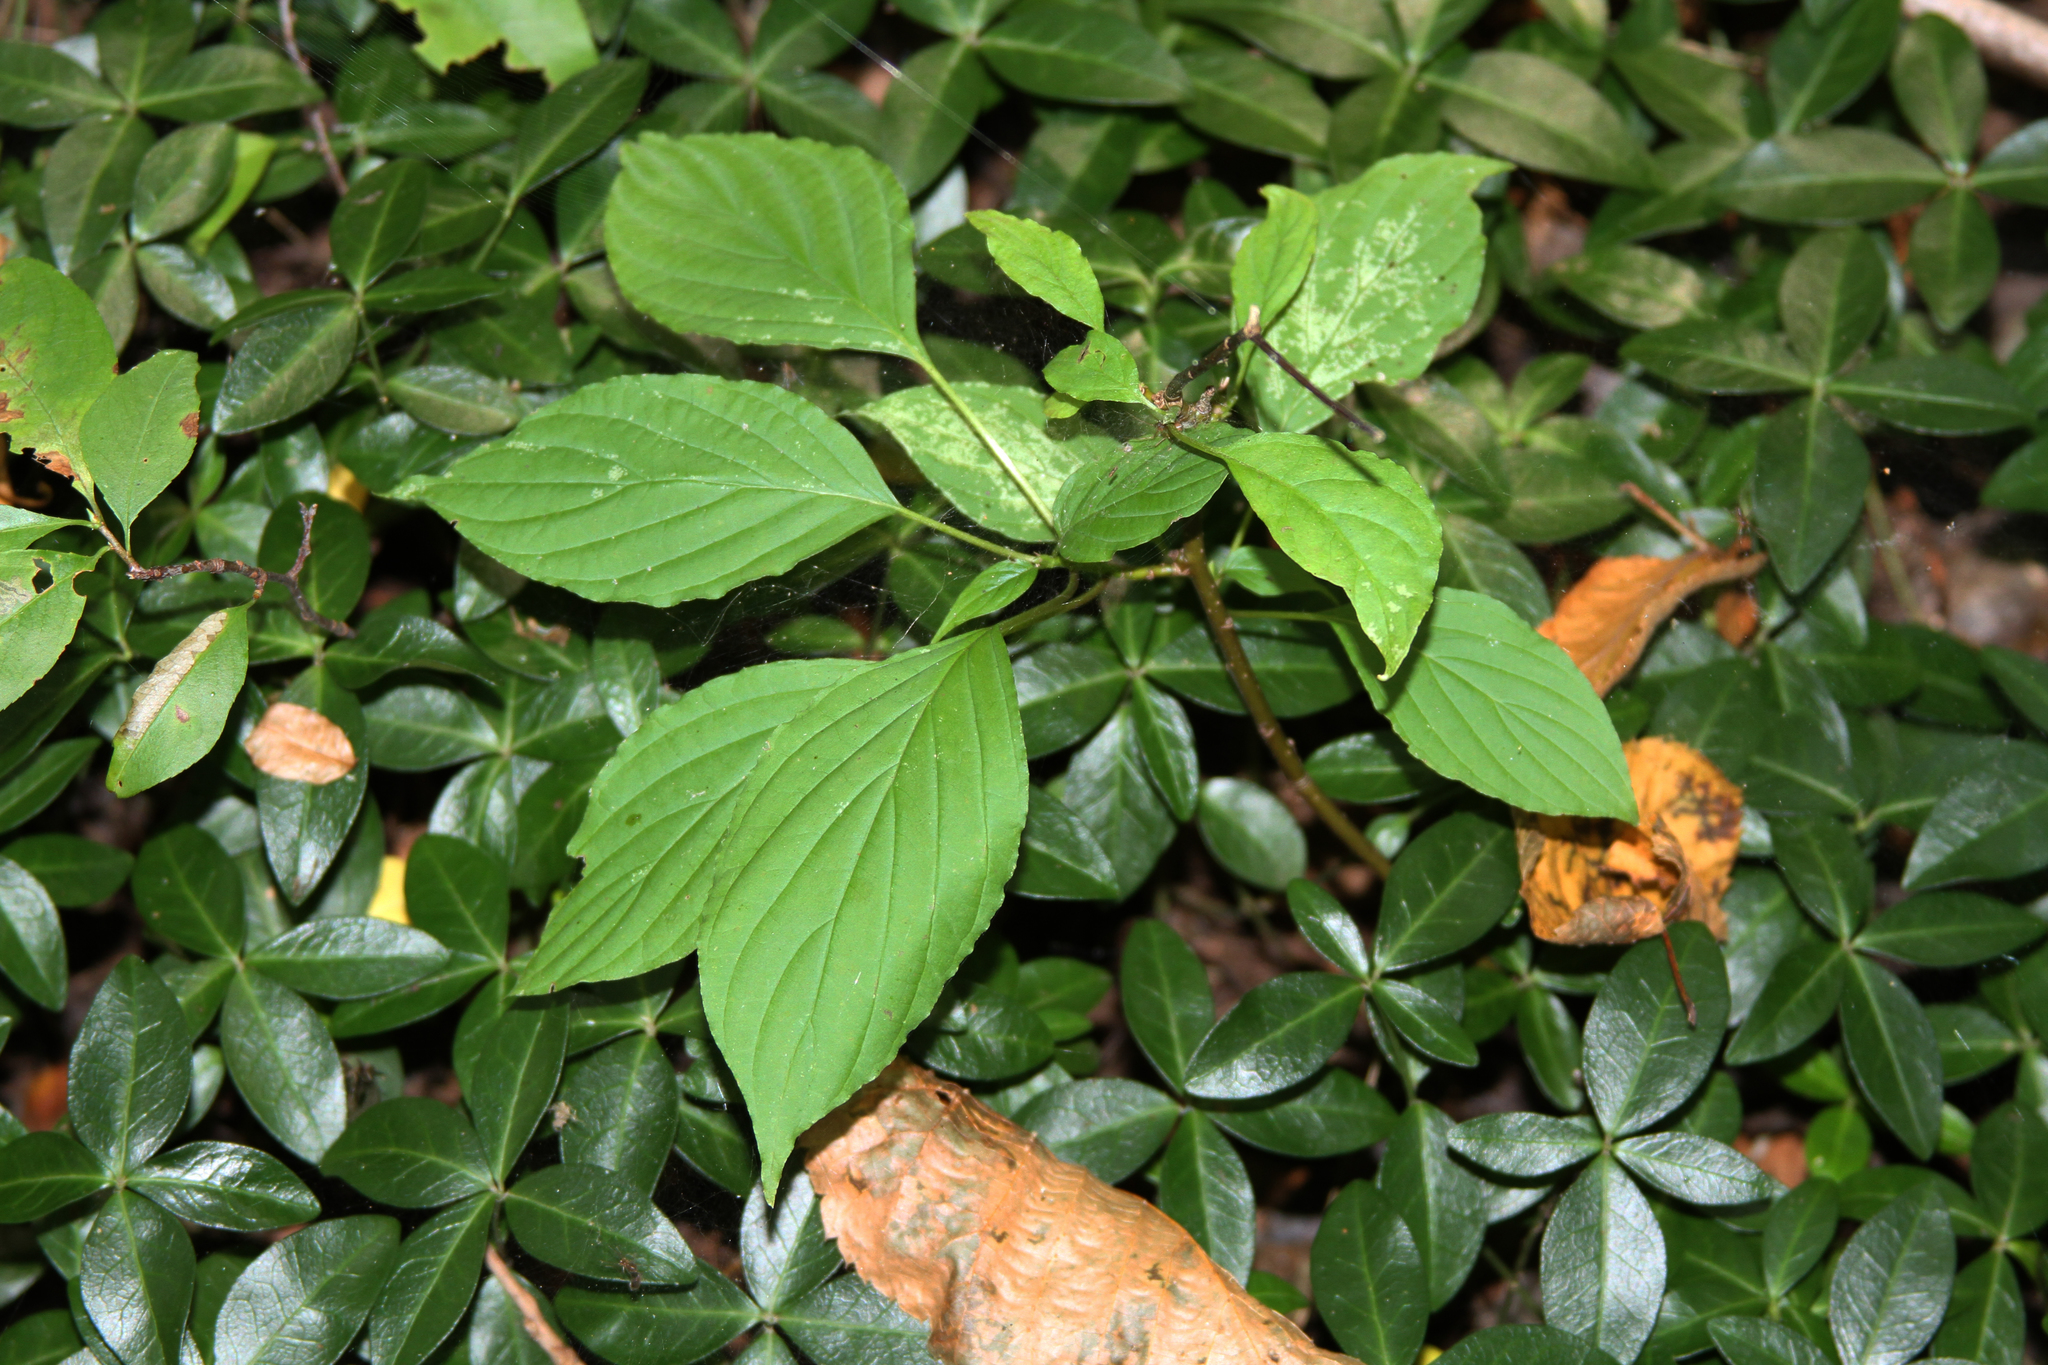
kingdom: Plantae
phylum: Tracheophyta
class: Magnoliopsida
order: Cornales
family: Cornaceae
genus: Cornus
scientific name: Cornus alternifolia
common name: Pagoda dogwood
